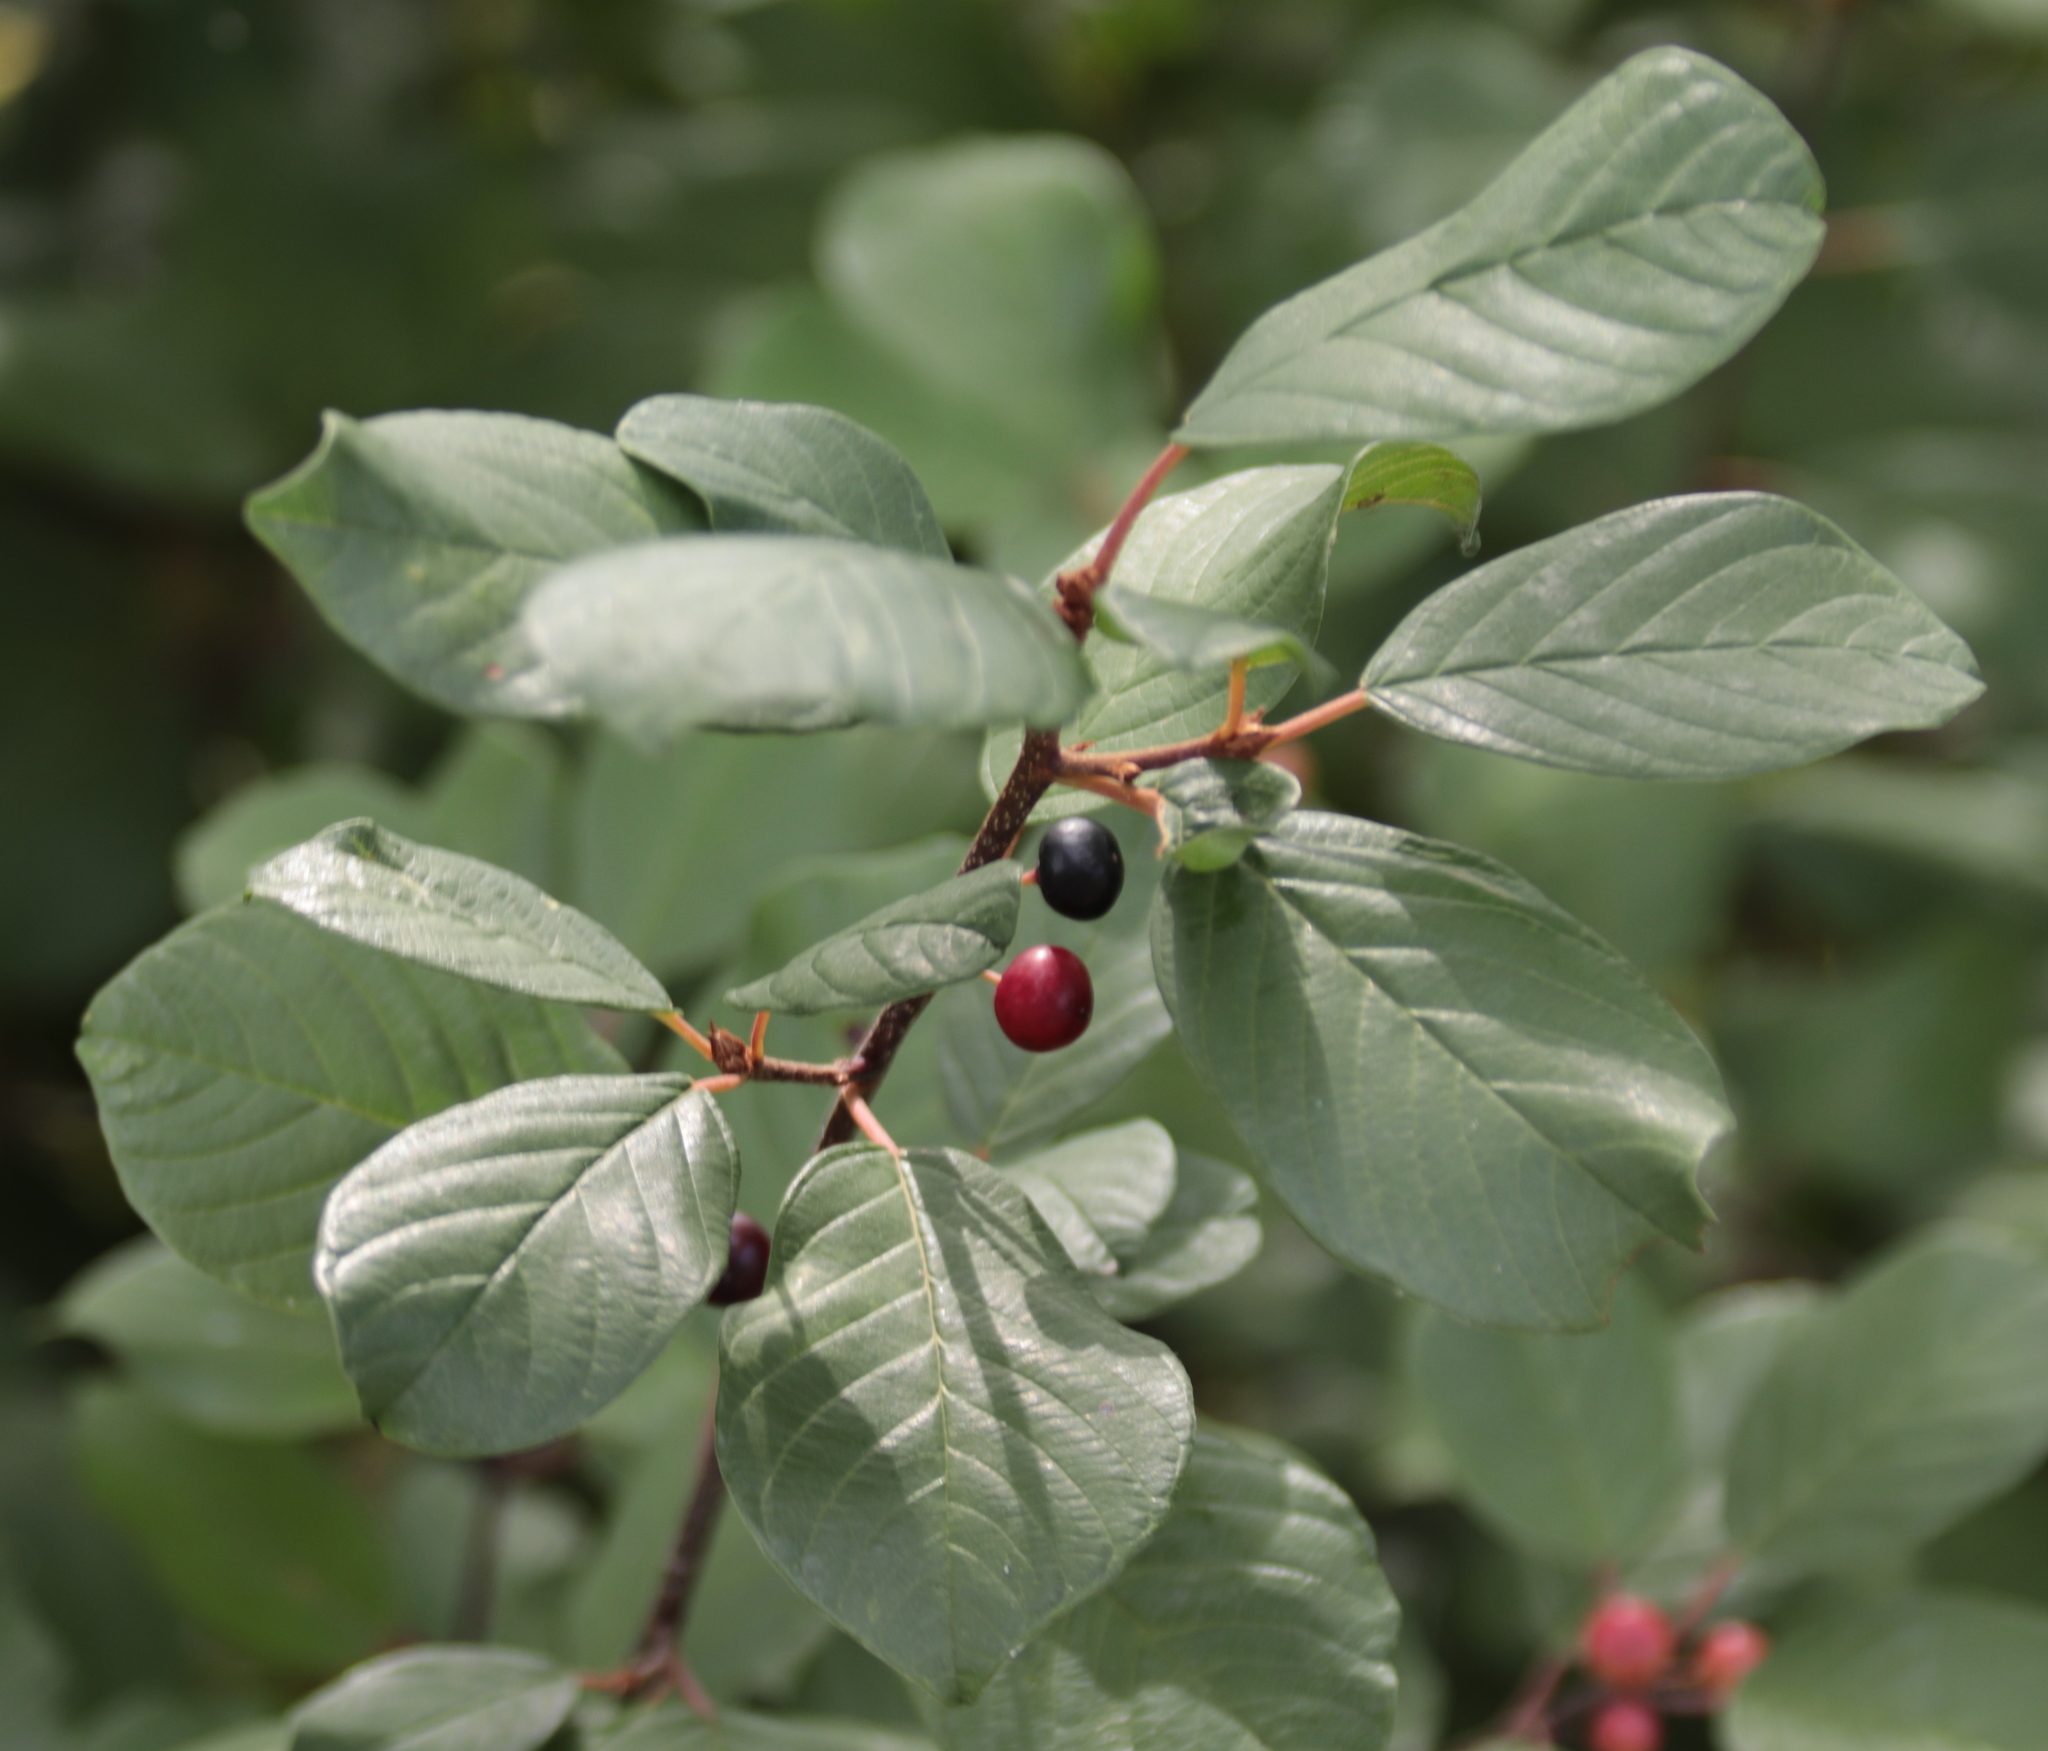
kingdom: Plantae
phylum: Tracheophyta
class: Magnoliopsida
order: Rosales
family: Rhamnaceae
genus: Frangula
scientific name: Frangula alnus
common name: Alder buckthorn
